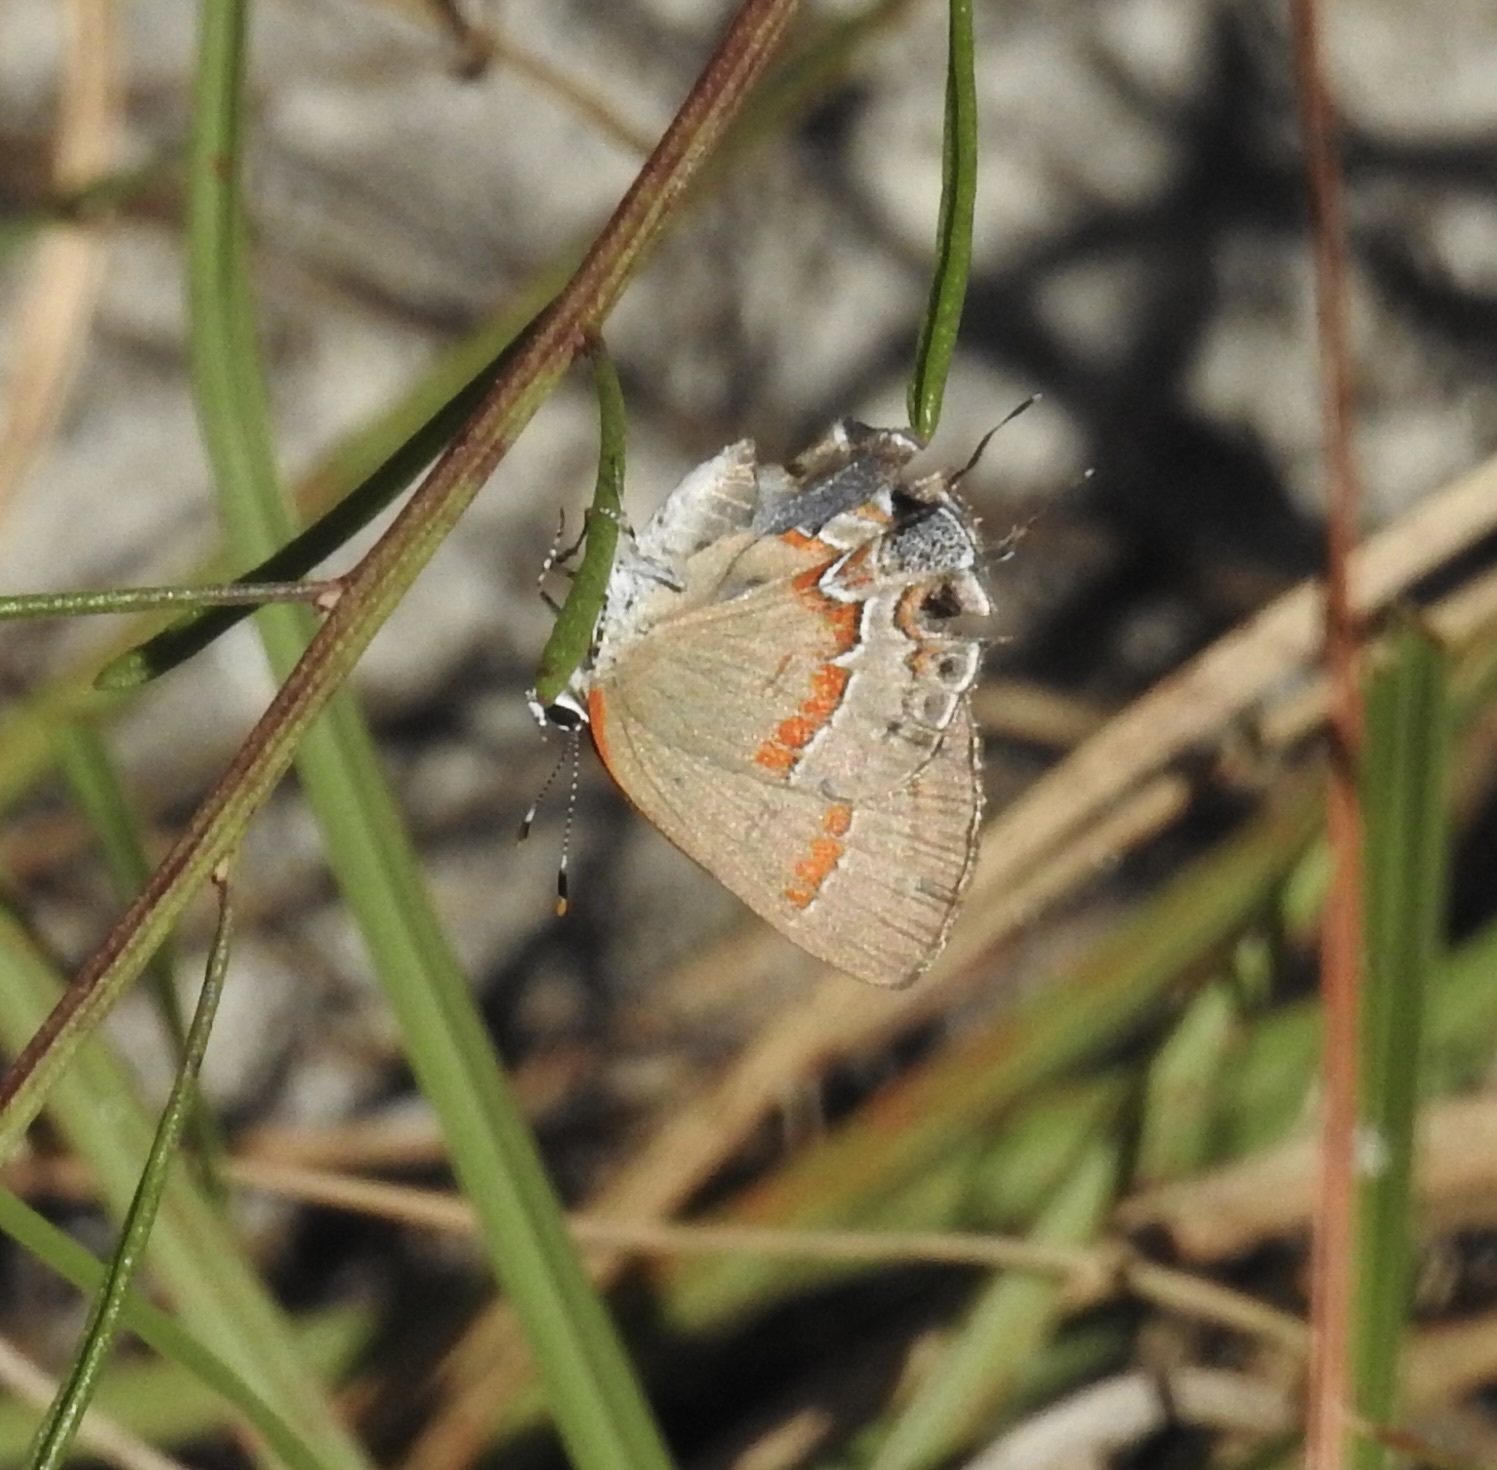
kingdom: Animalia
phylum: Arthropoda
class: Insecta
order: Lepidoptera
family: Lycaenidae
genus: Calycopis
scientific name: Calycopis cecrops
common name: Red-banded hairstreak
